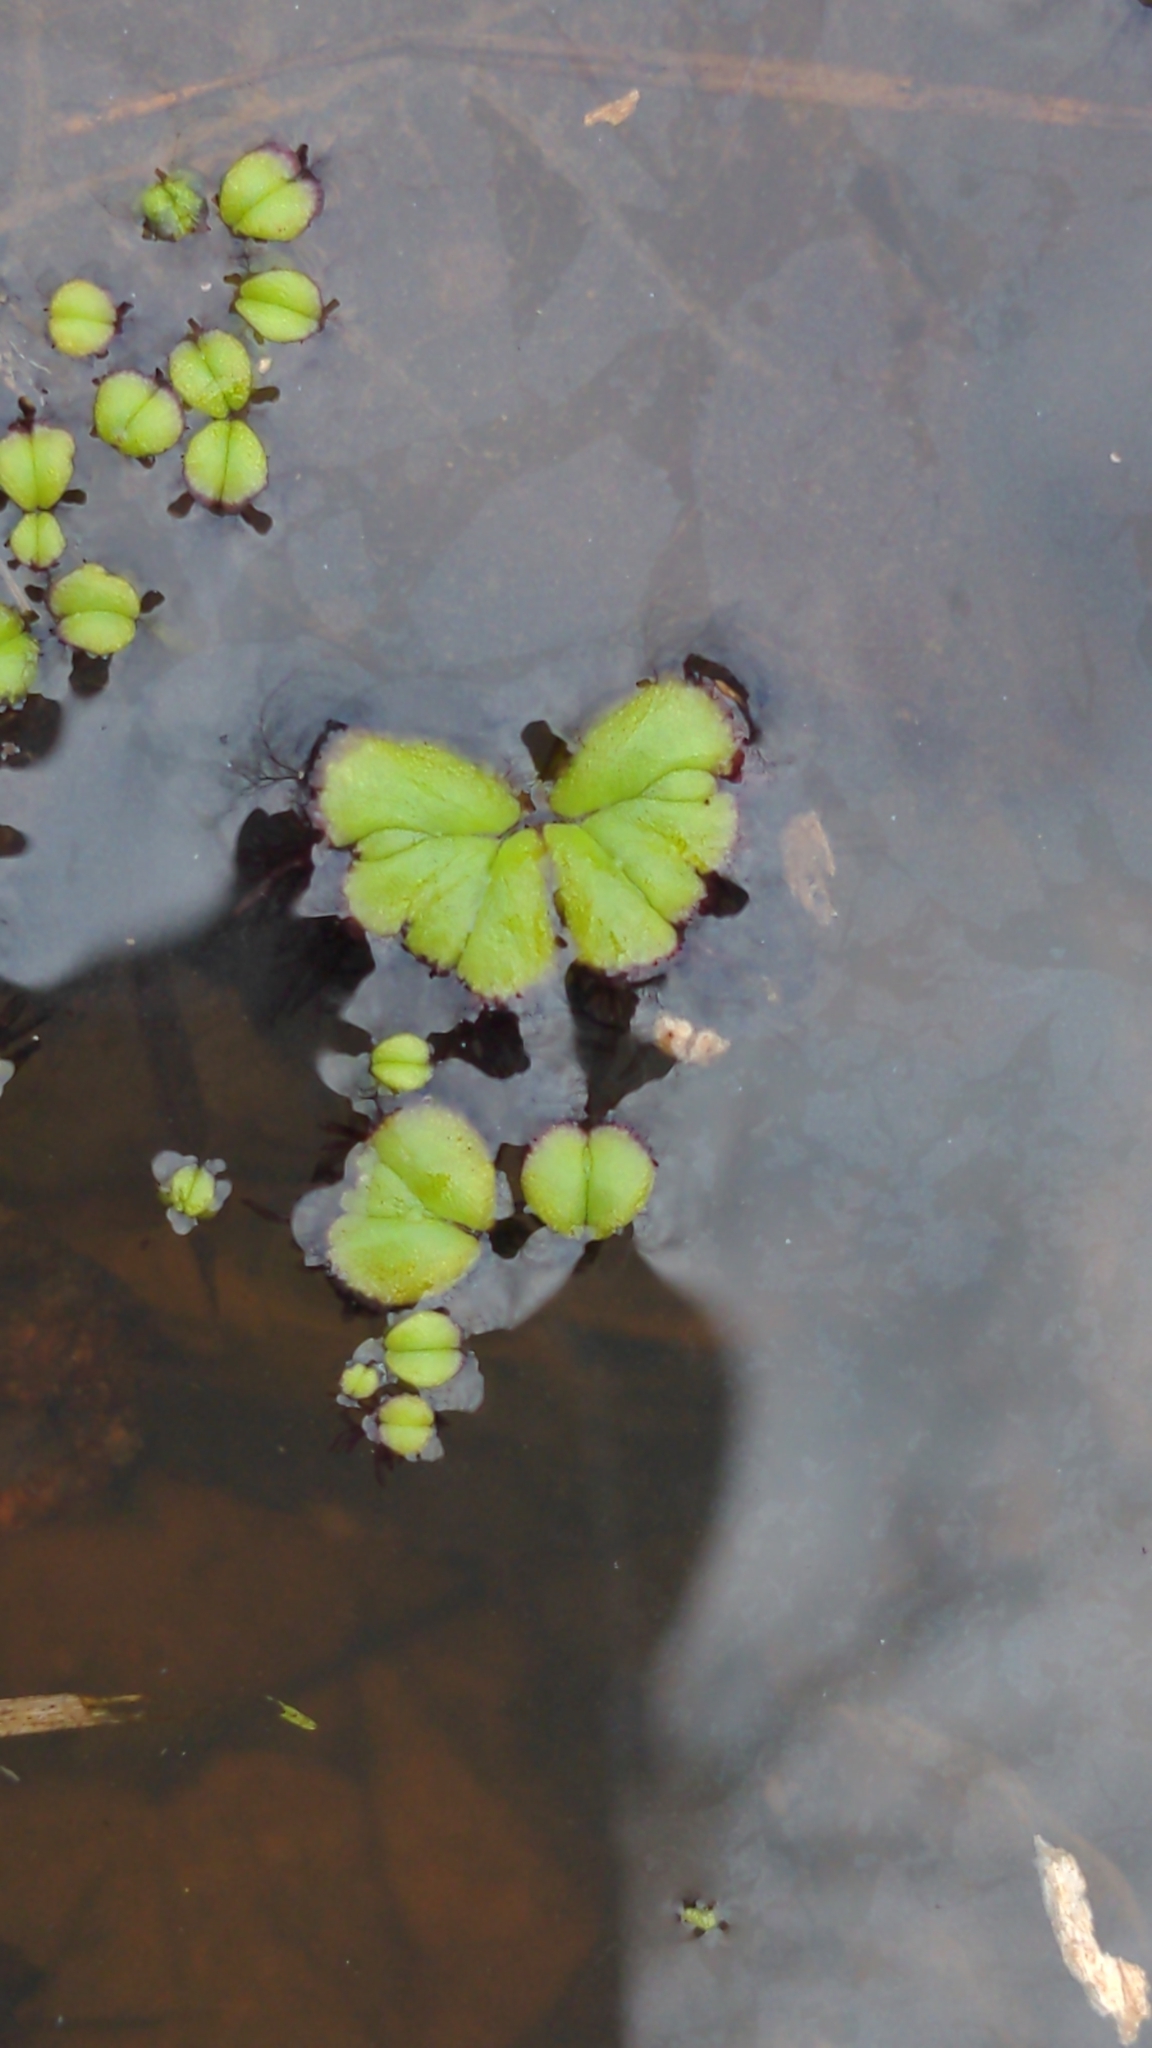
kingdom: Plantae
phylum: Marchantiophyta
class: Marchantiopsida
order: Marchantiales
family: Ricciaceae
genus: Ricciocarpos
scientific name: Ricciocarpos natans
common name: Purple-fringed liverwort
